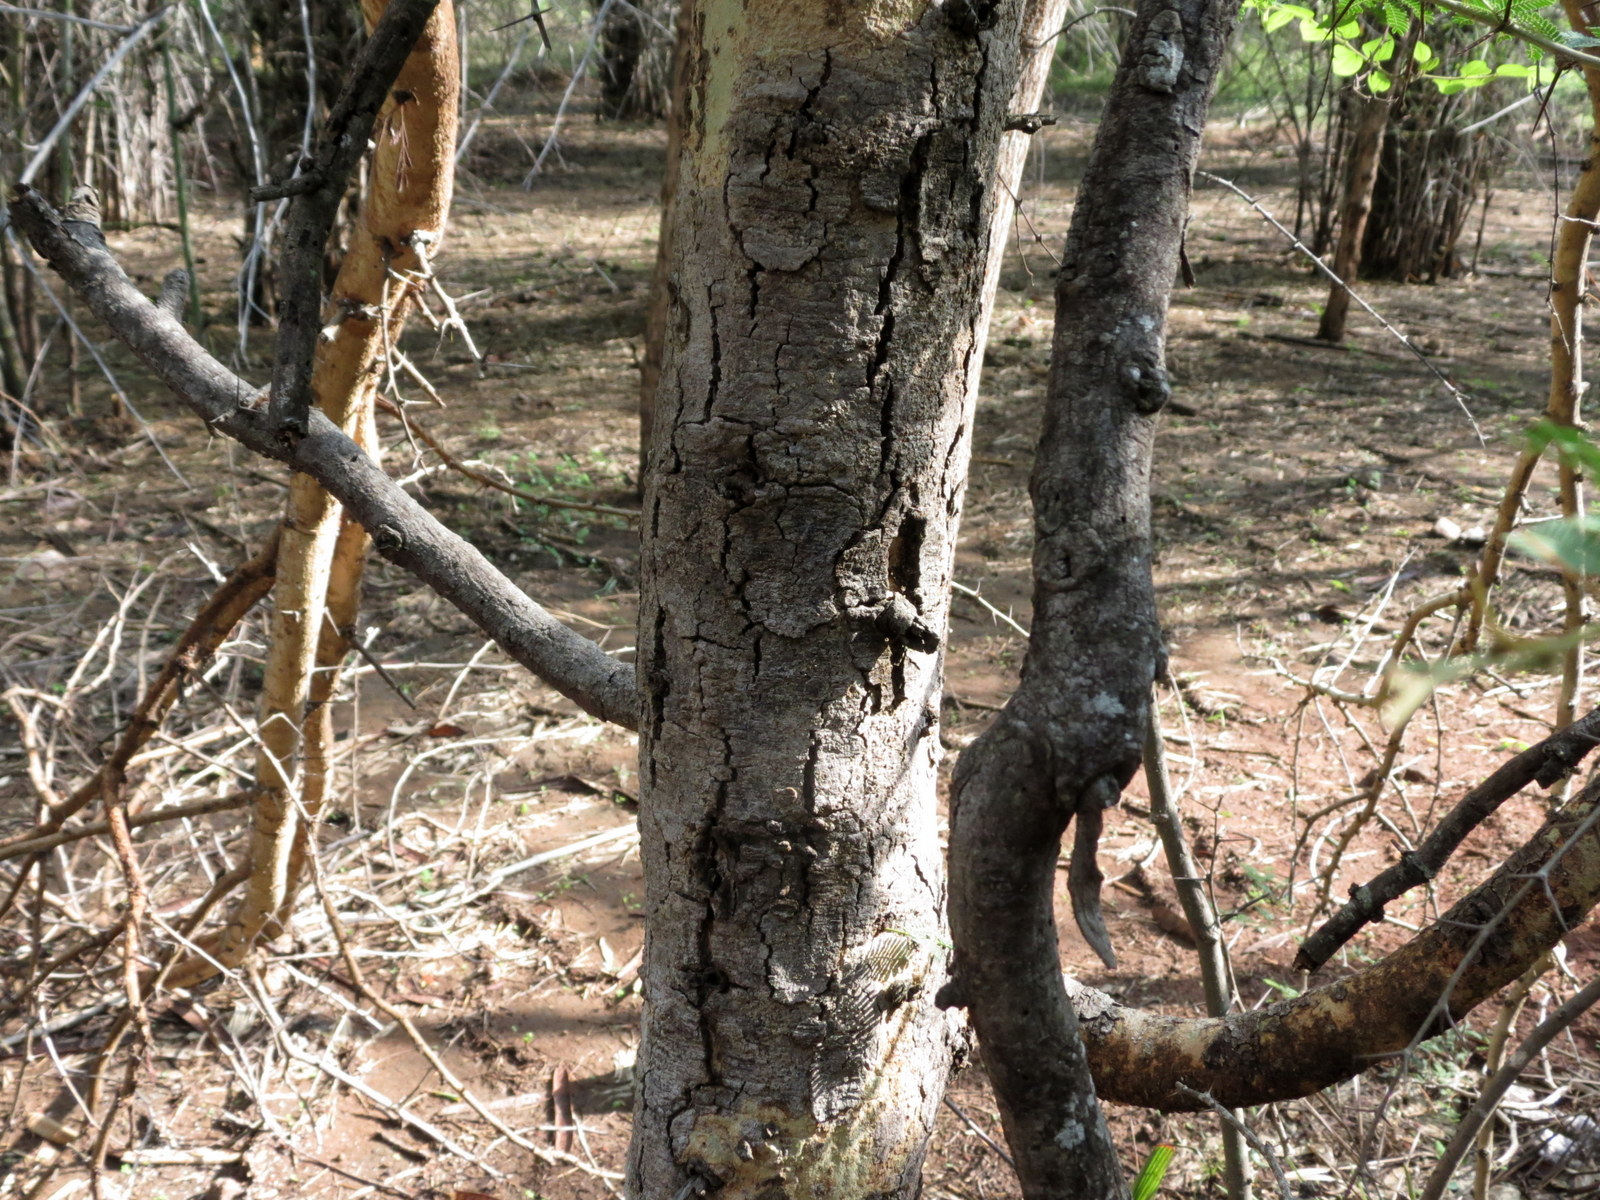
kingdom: Plantae
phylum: Tracheophyta
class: Magnoliopsida
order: Fabales
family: Fabaceae
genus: Vachellia
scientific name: Vachellia leucophloea
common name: Distiller's acacia
